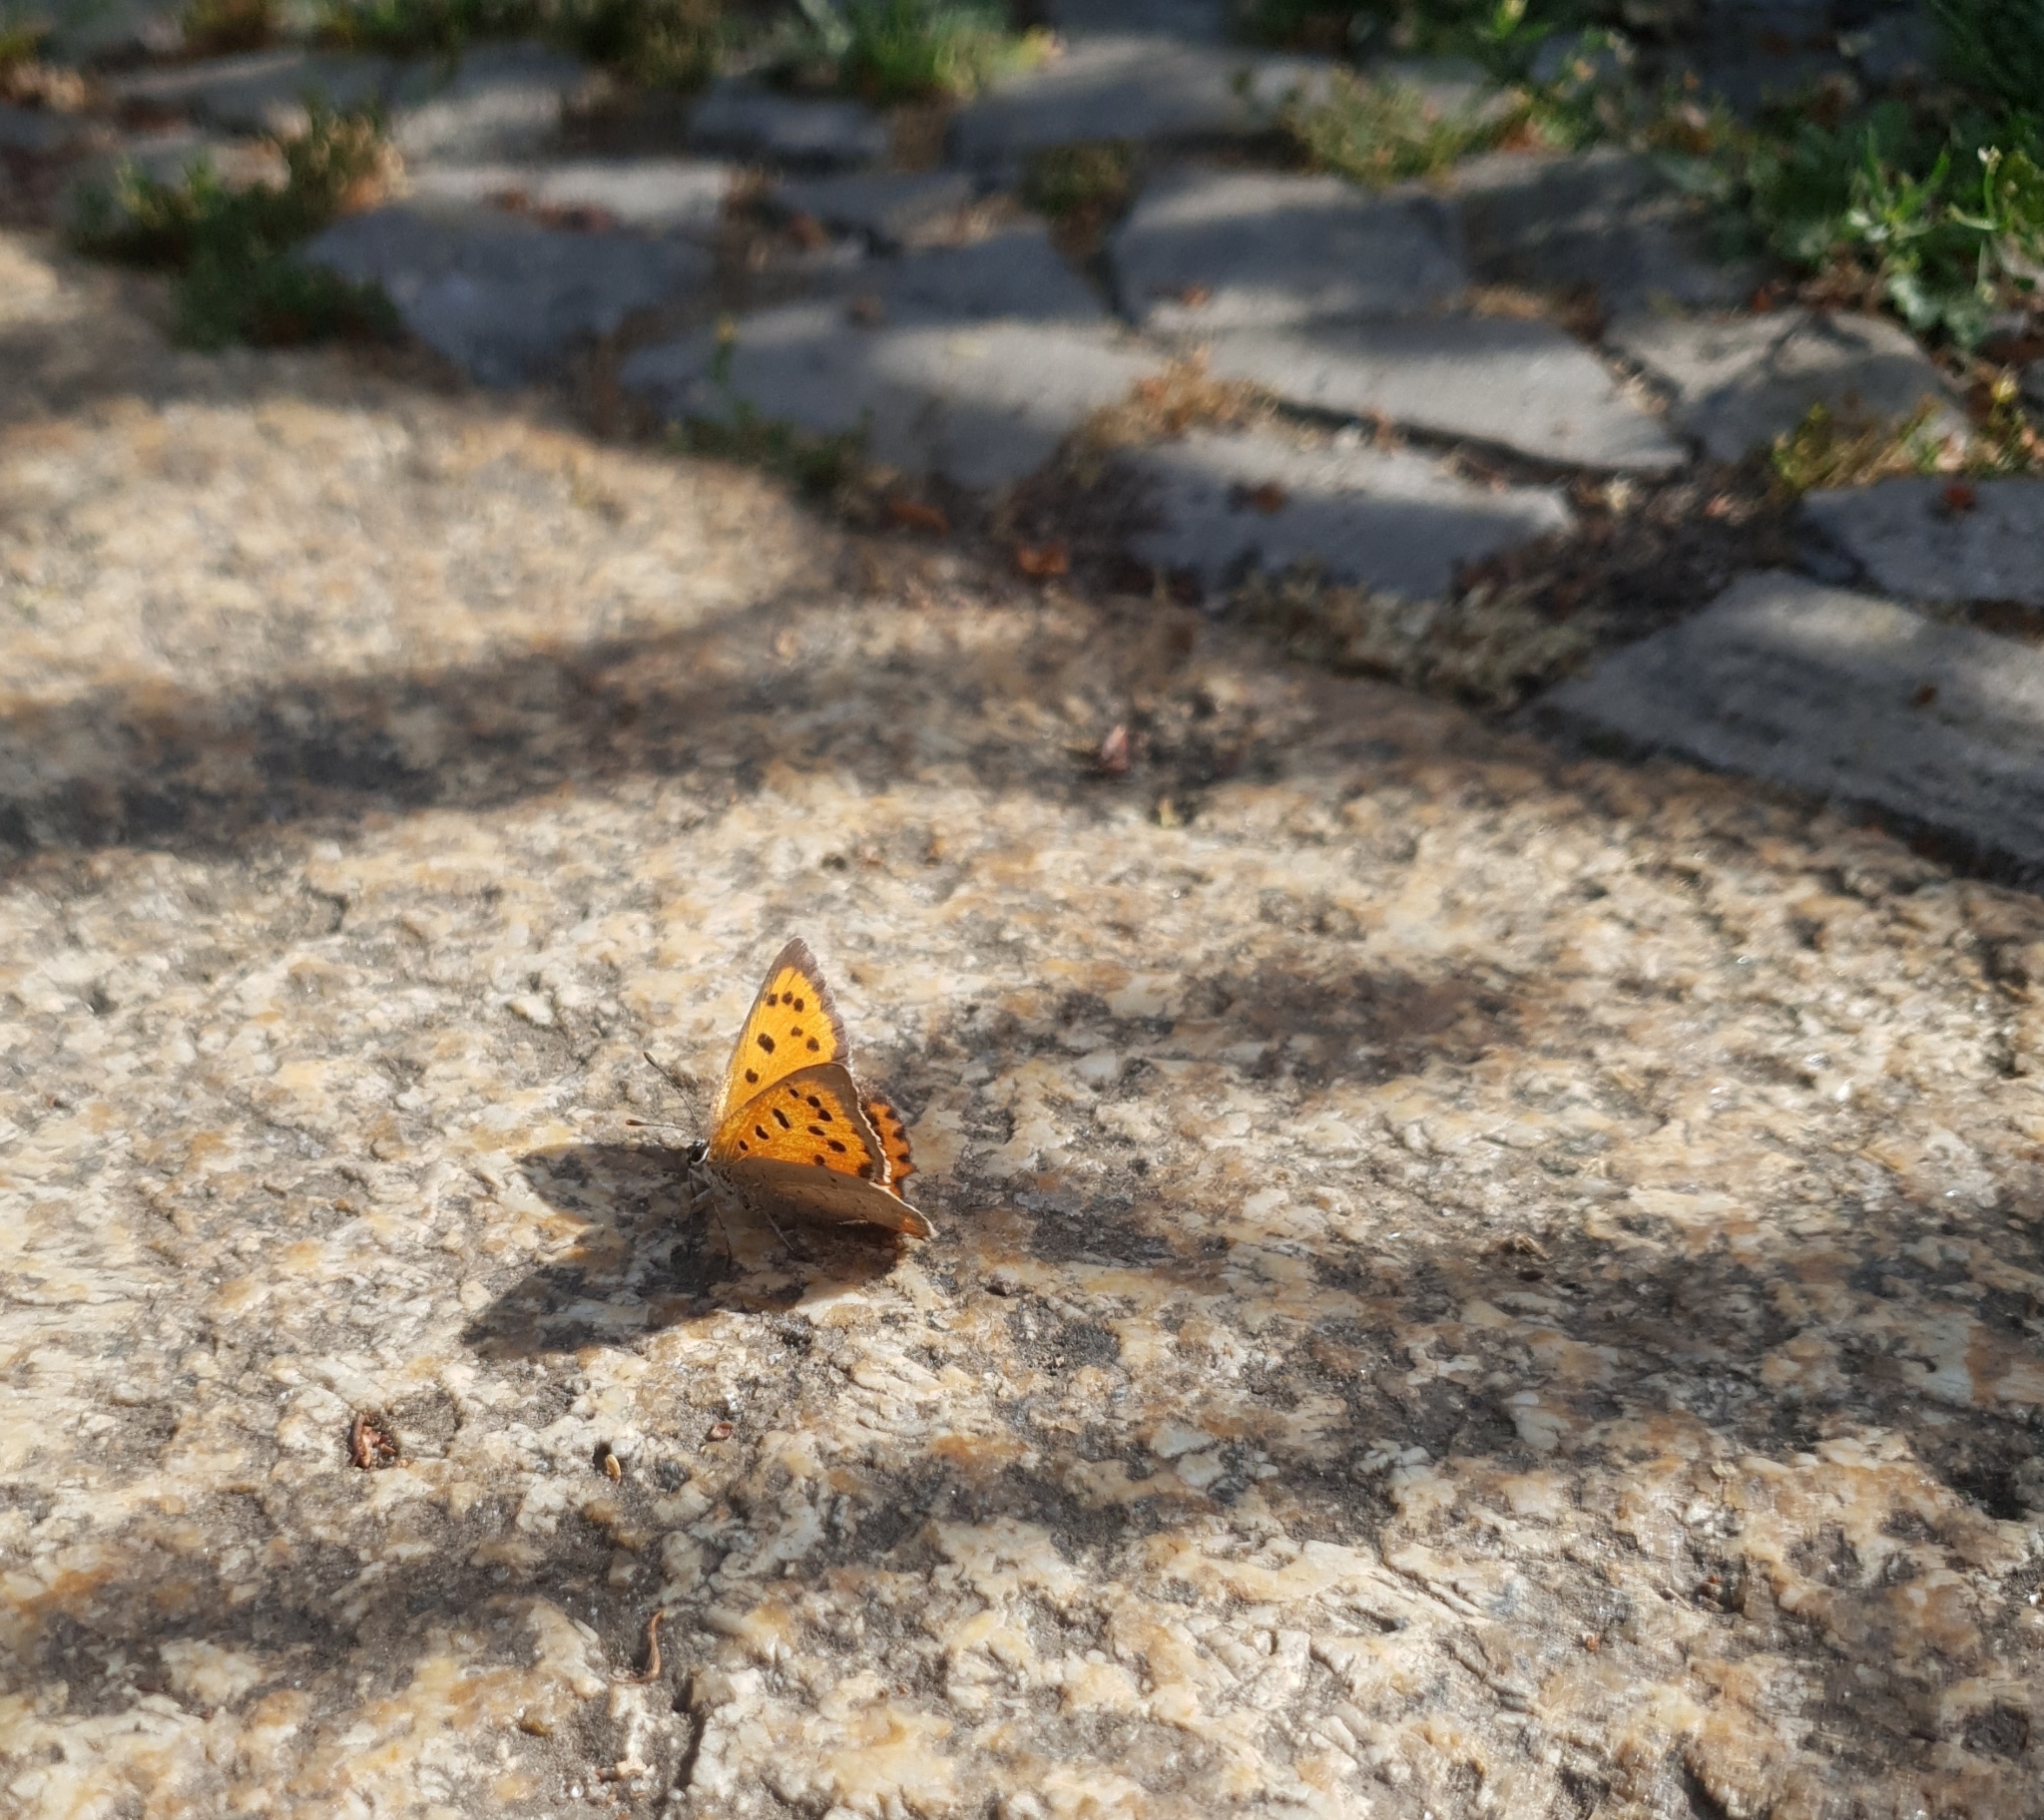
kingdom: Animalia
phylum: Arthropoda
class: Insecta
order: Lepidoptera
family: Lycaenidae
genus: Lycaena
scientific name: Lycaena phlaeas
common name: Small copper
